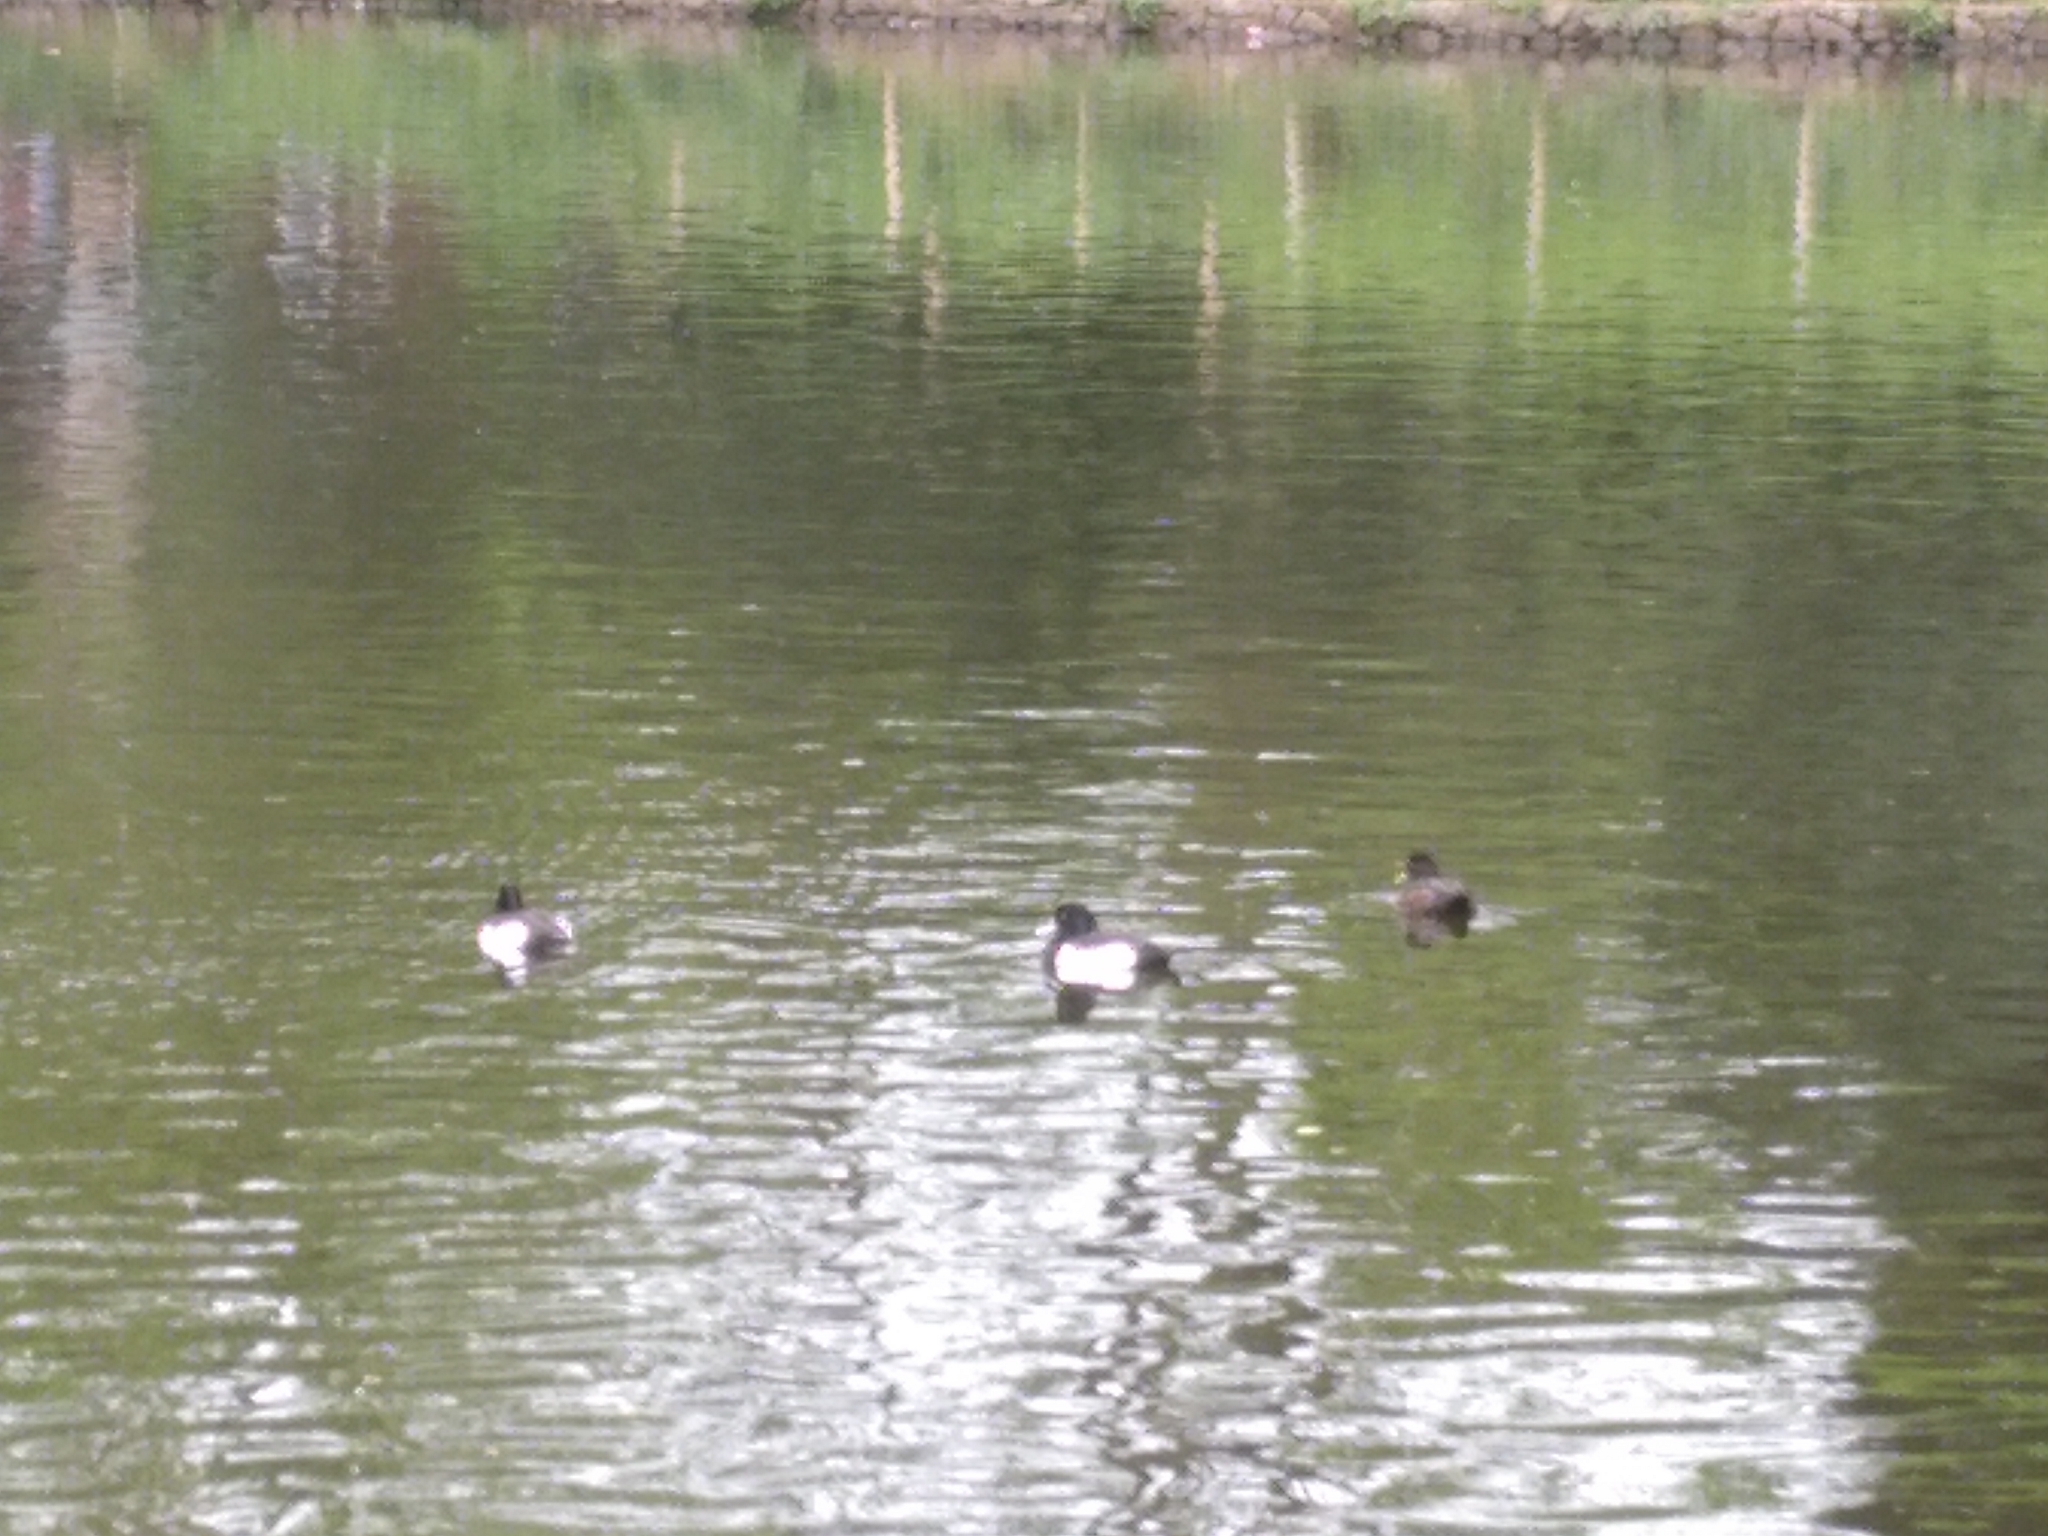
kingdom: Animalia
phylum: Chordata
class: Aves
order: Anseriformes
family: Anatidae
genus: Aythya
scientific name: Aythya fuligula
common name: Tufted duck
